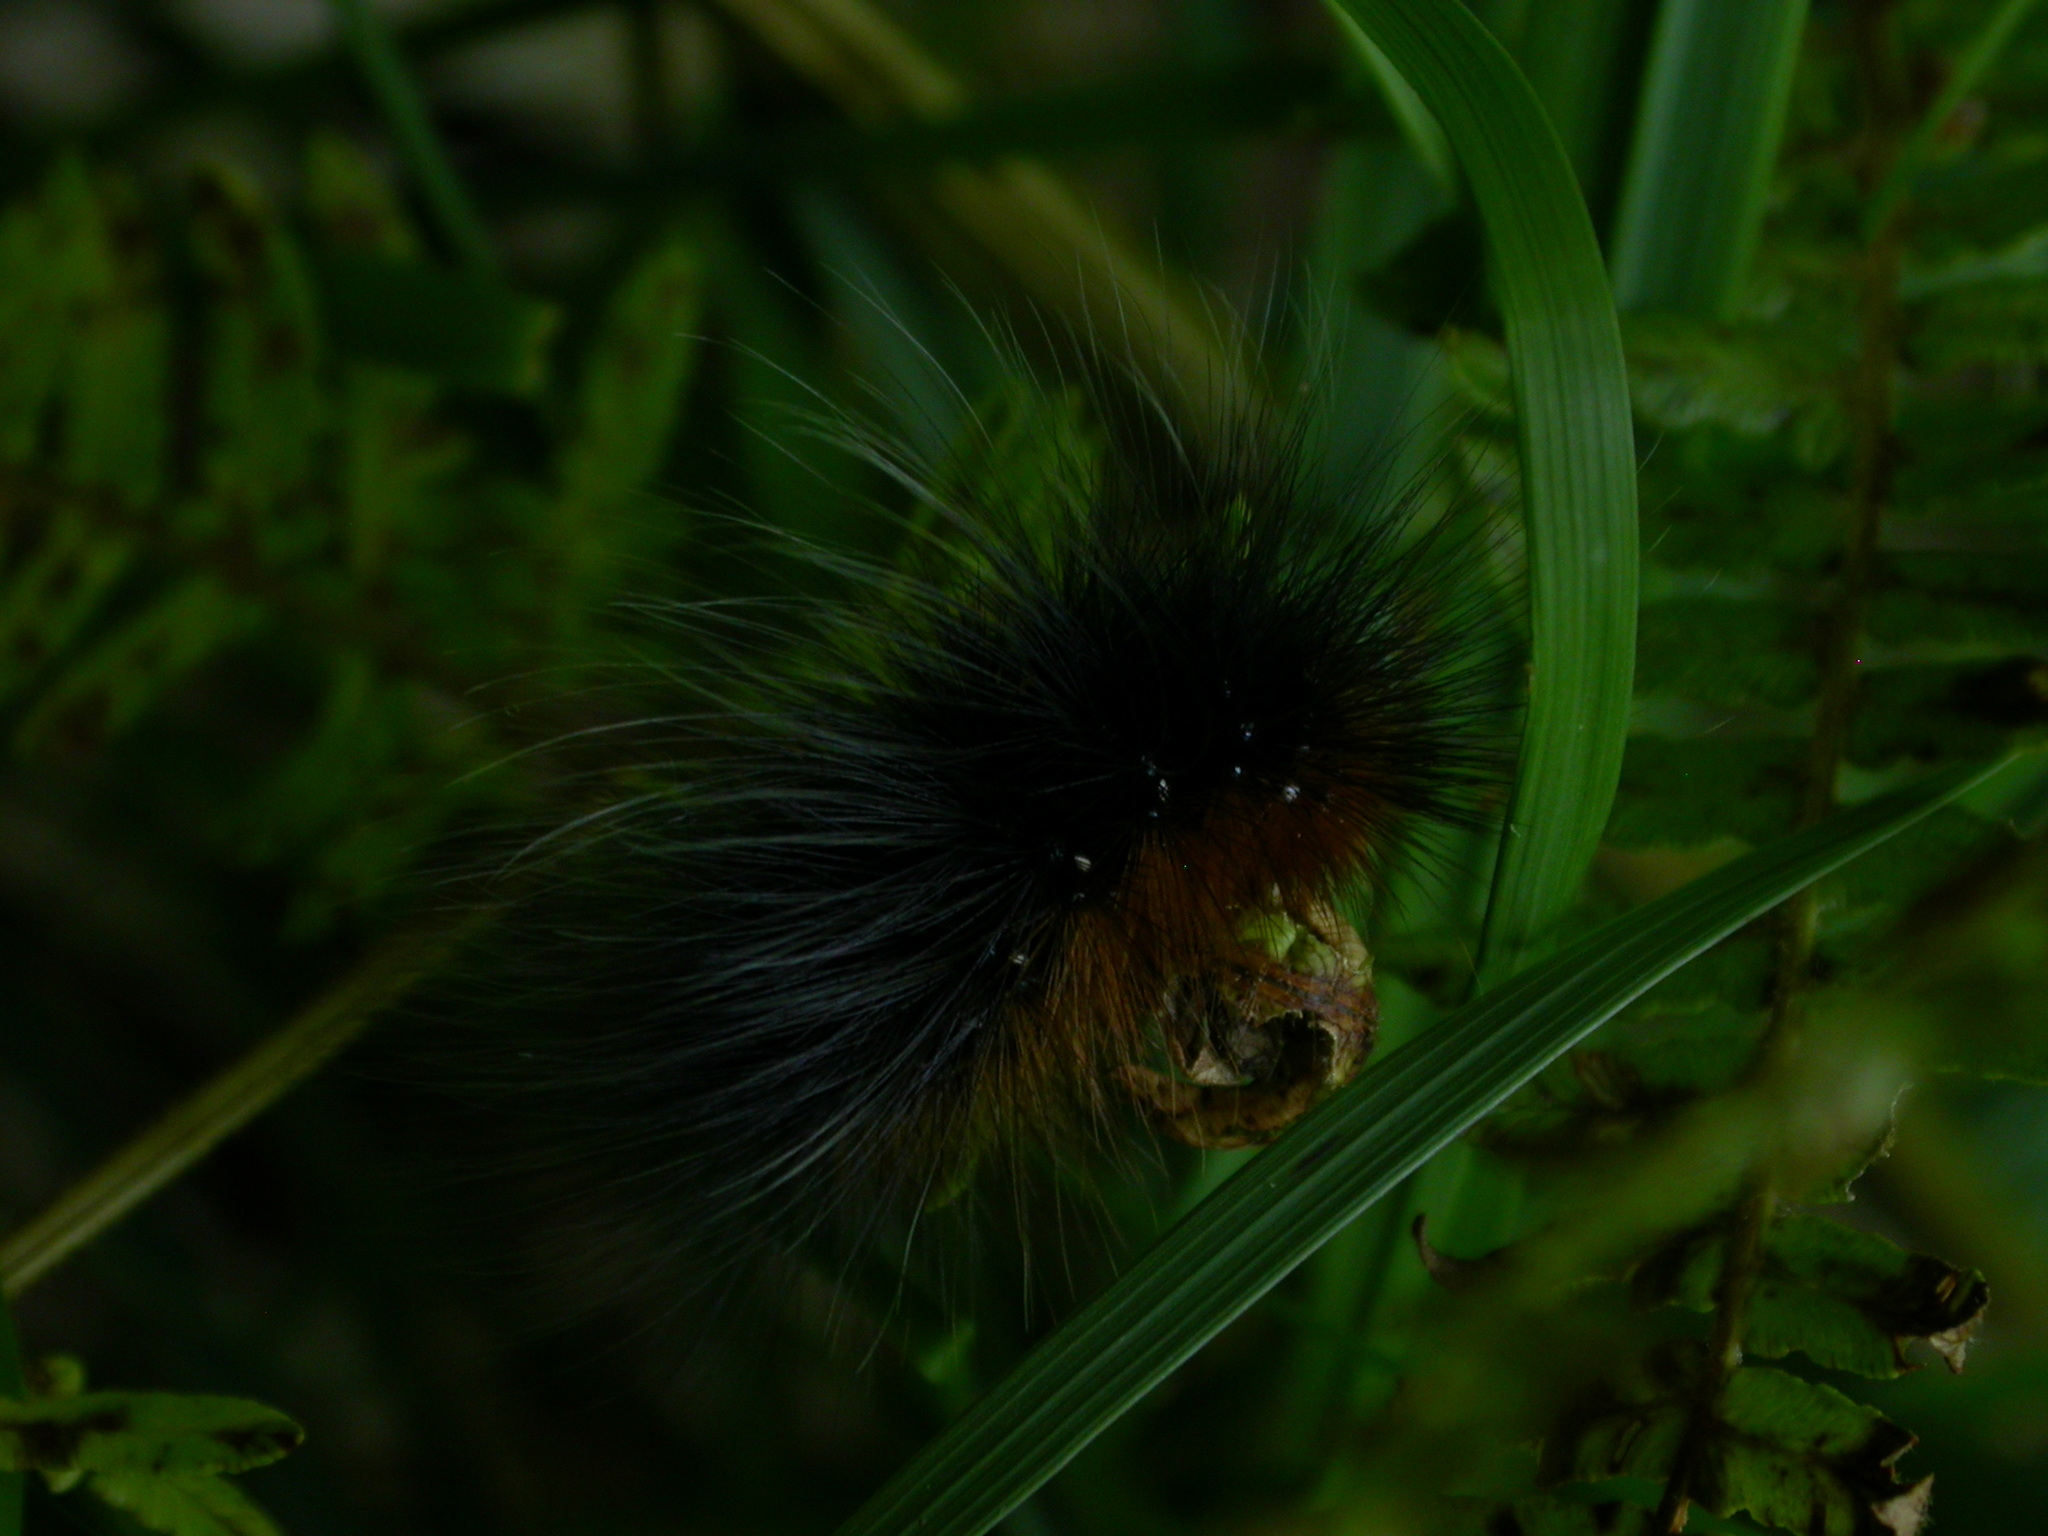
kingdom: Animalia
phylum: Arthropoda
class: Insecta
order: Lepidoptera
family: Erebidae
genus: Arctia
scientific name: Arctia caja
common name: Garden tiger
